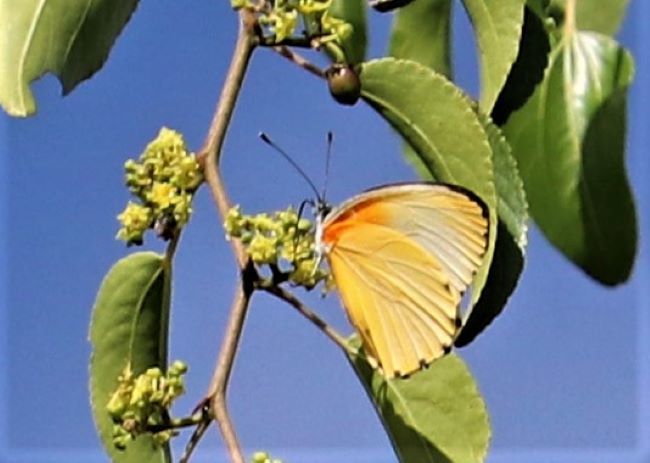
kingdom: Animalia
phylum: Arthropoda
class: Insecta
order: Lepidoptera
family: Pieridae
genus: Mylothris
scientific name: Mylothris agathina
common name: Eastern dotted border
